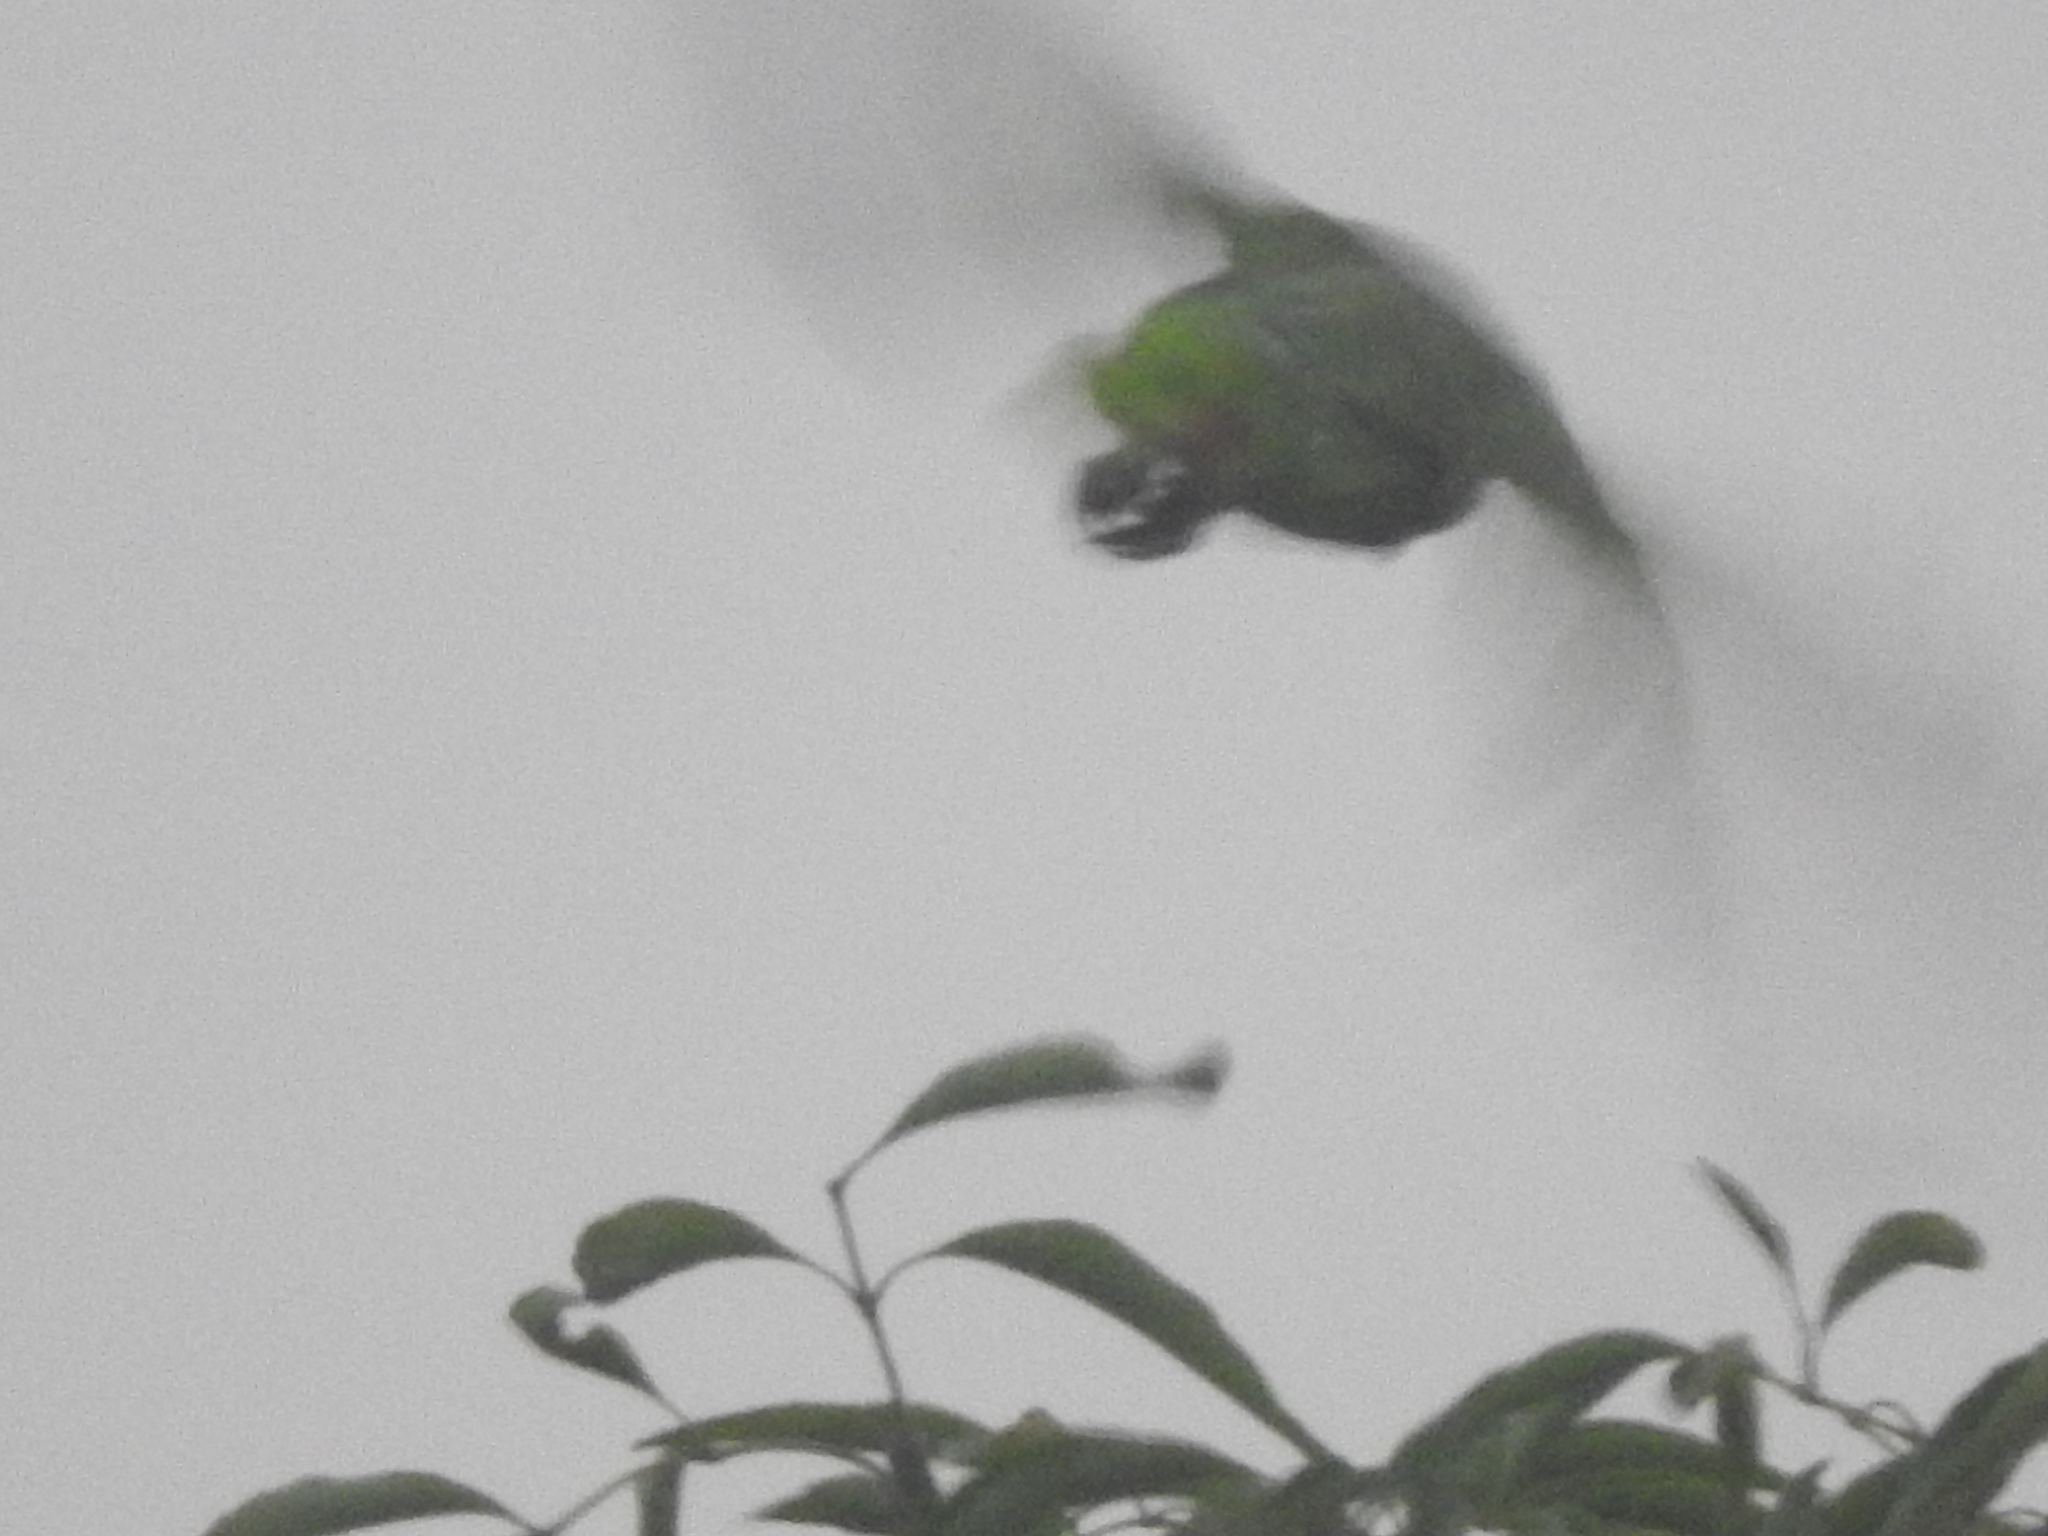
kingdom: Animalia
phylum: Chordata
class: Aves
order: Psittaciformes
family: Psittacidae
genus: Amazona
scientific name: Amazona albifrons
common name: White-fronted amazon
